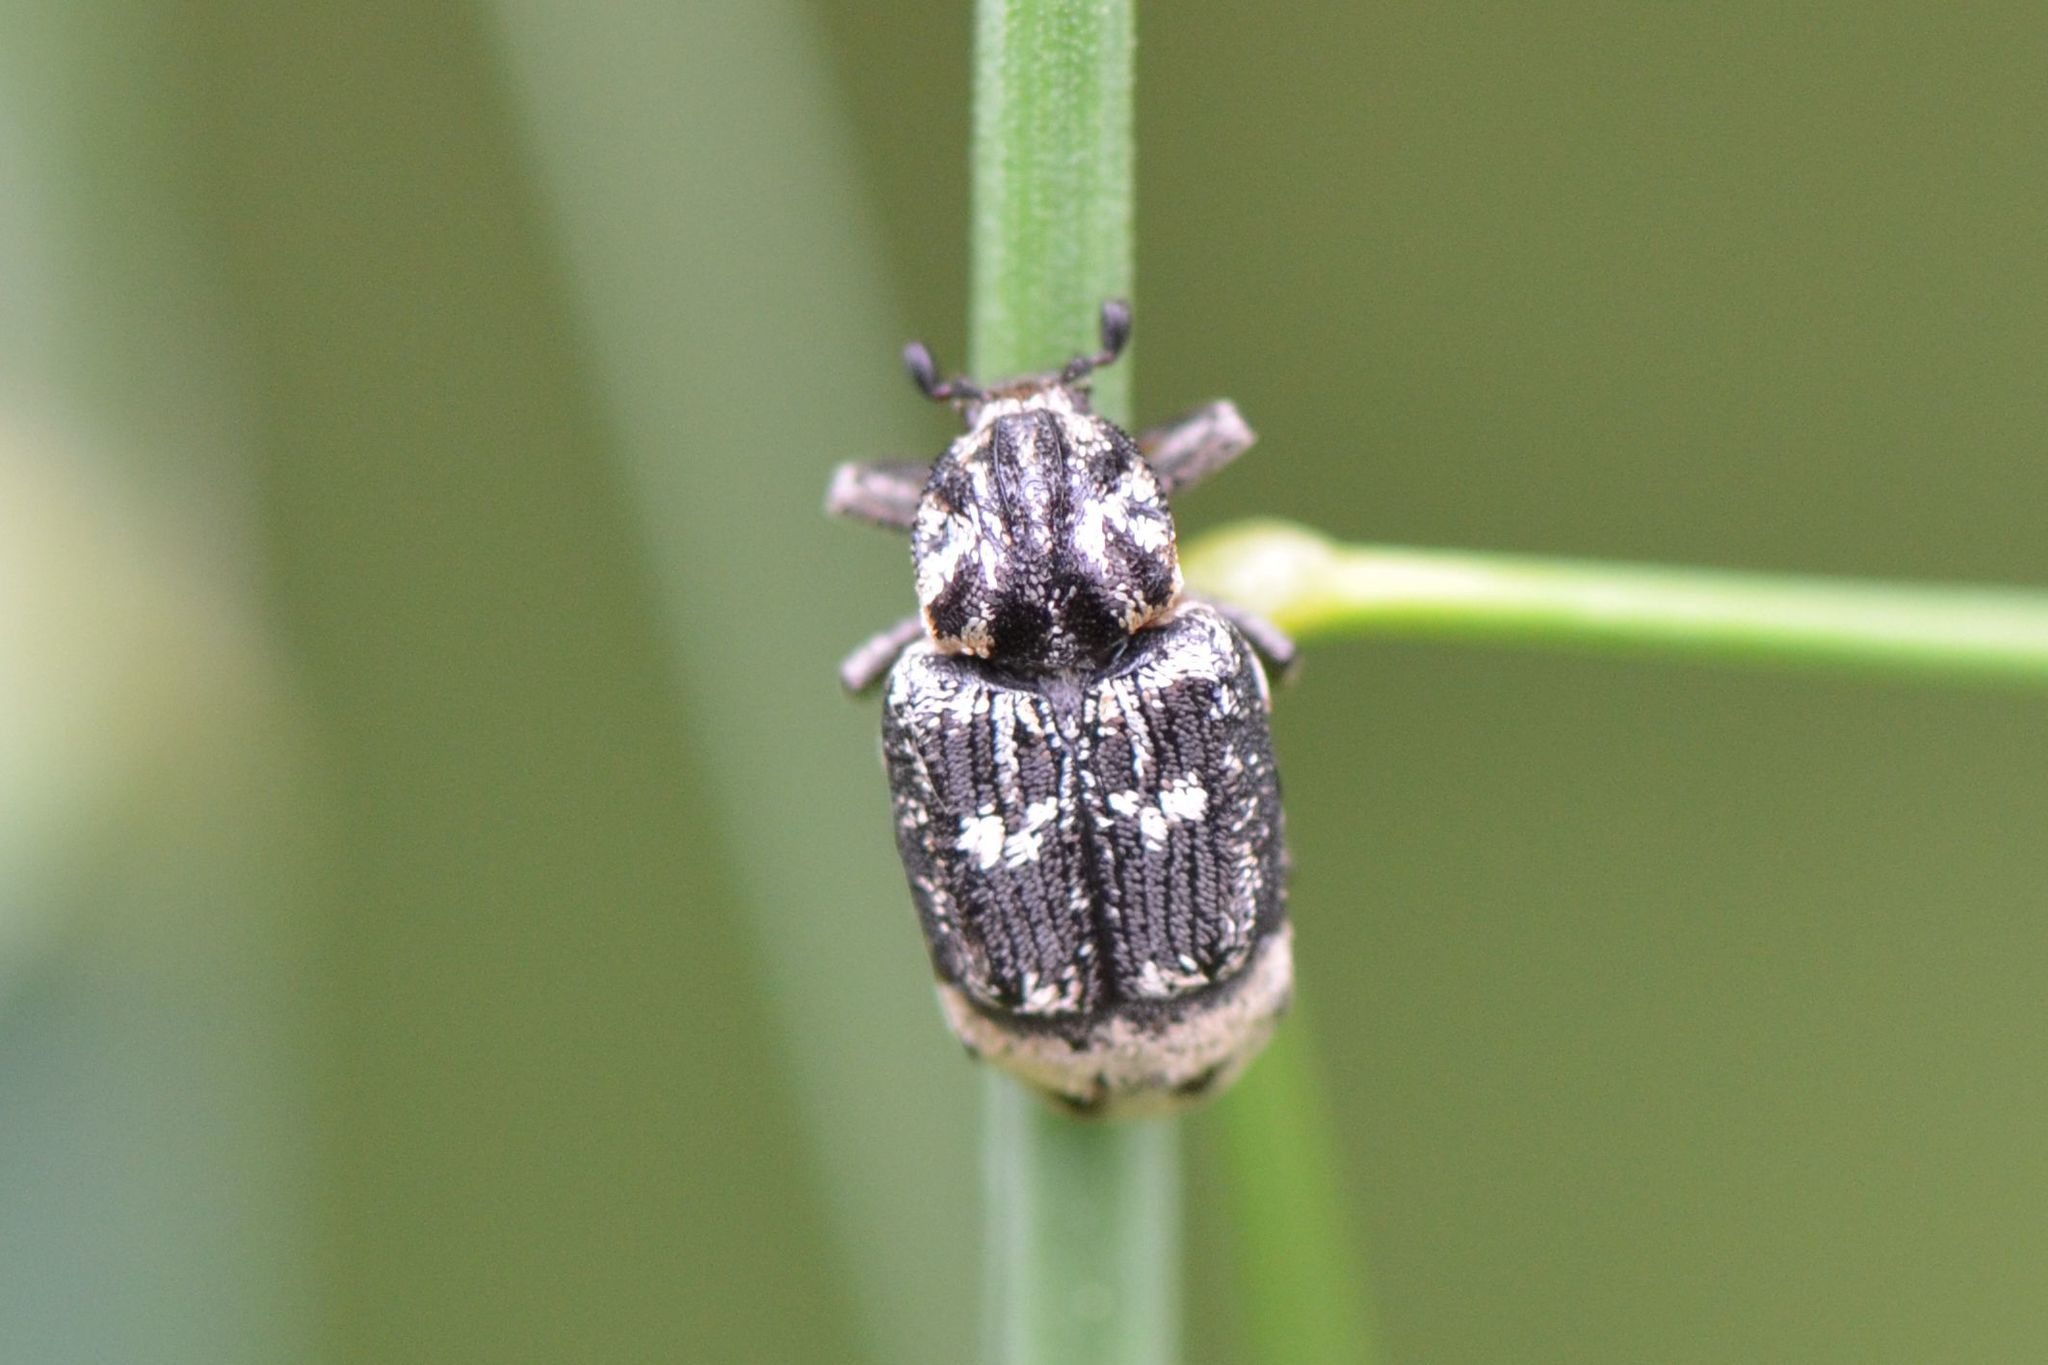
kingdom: Animalia
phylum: Arthropoda
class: Insecta
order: Coleoptera
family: Scarabaeidae
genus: Valgus
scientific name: Valgus hemipterus
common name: Bug flower chafer
